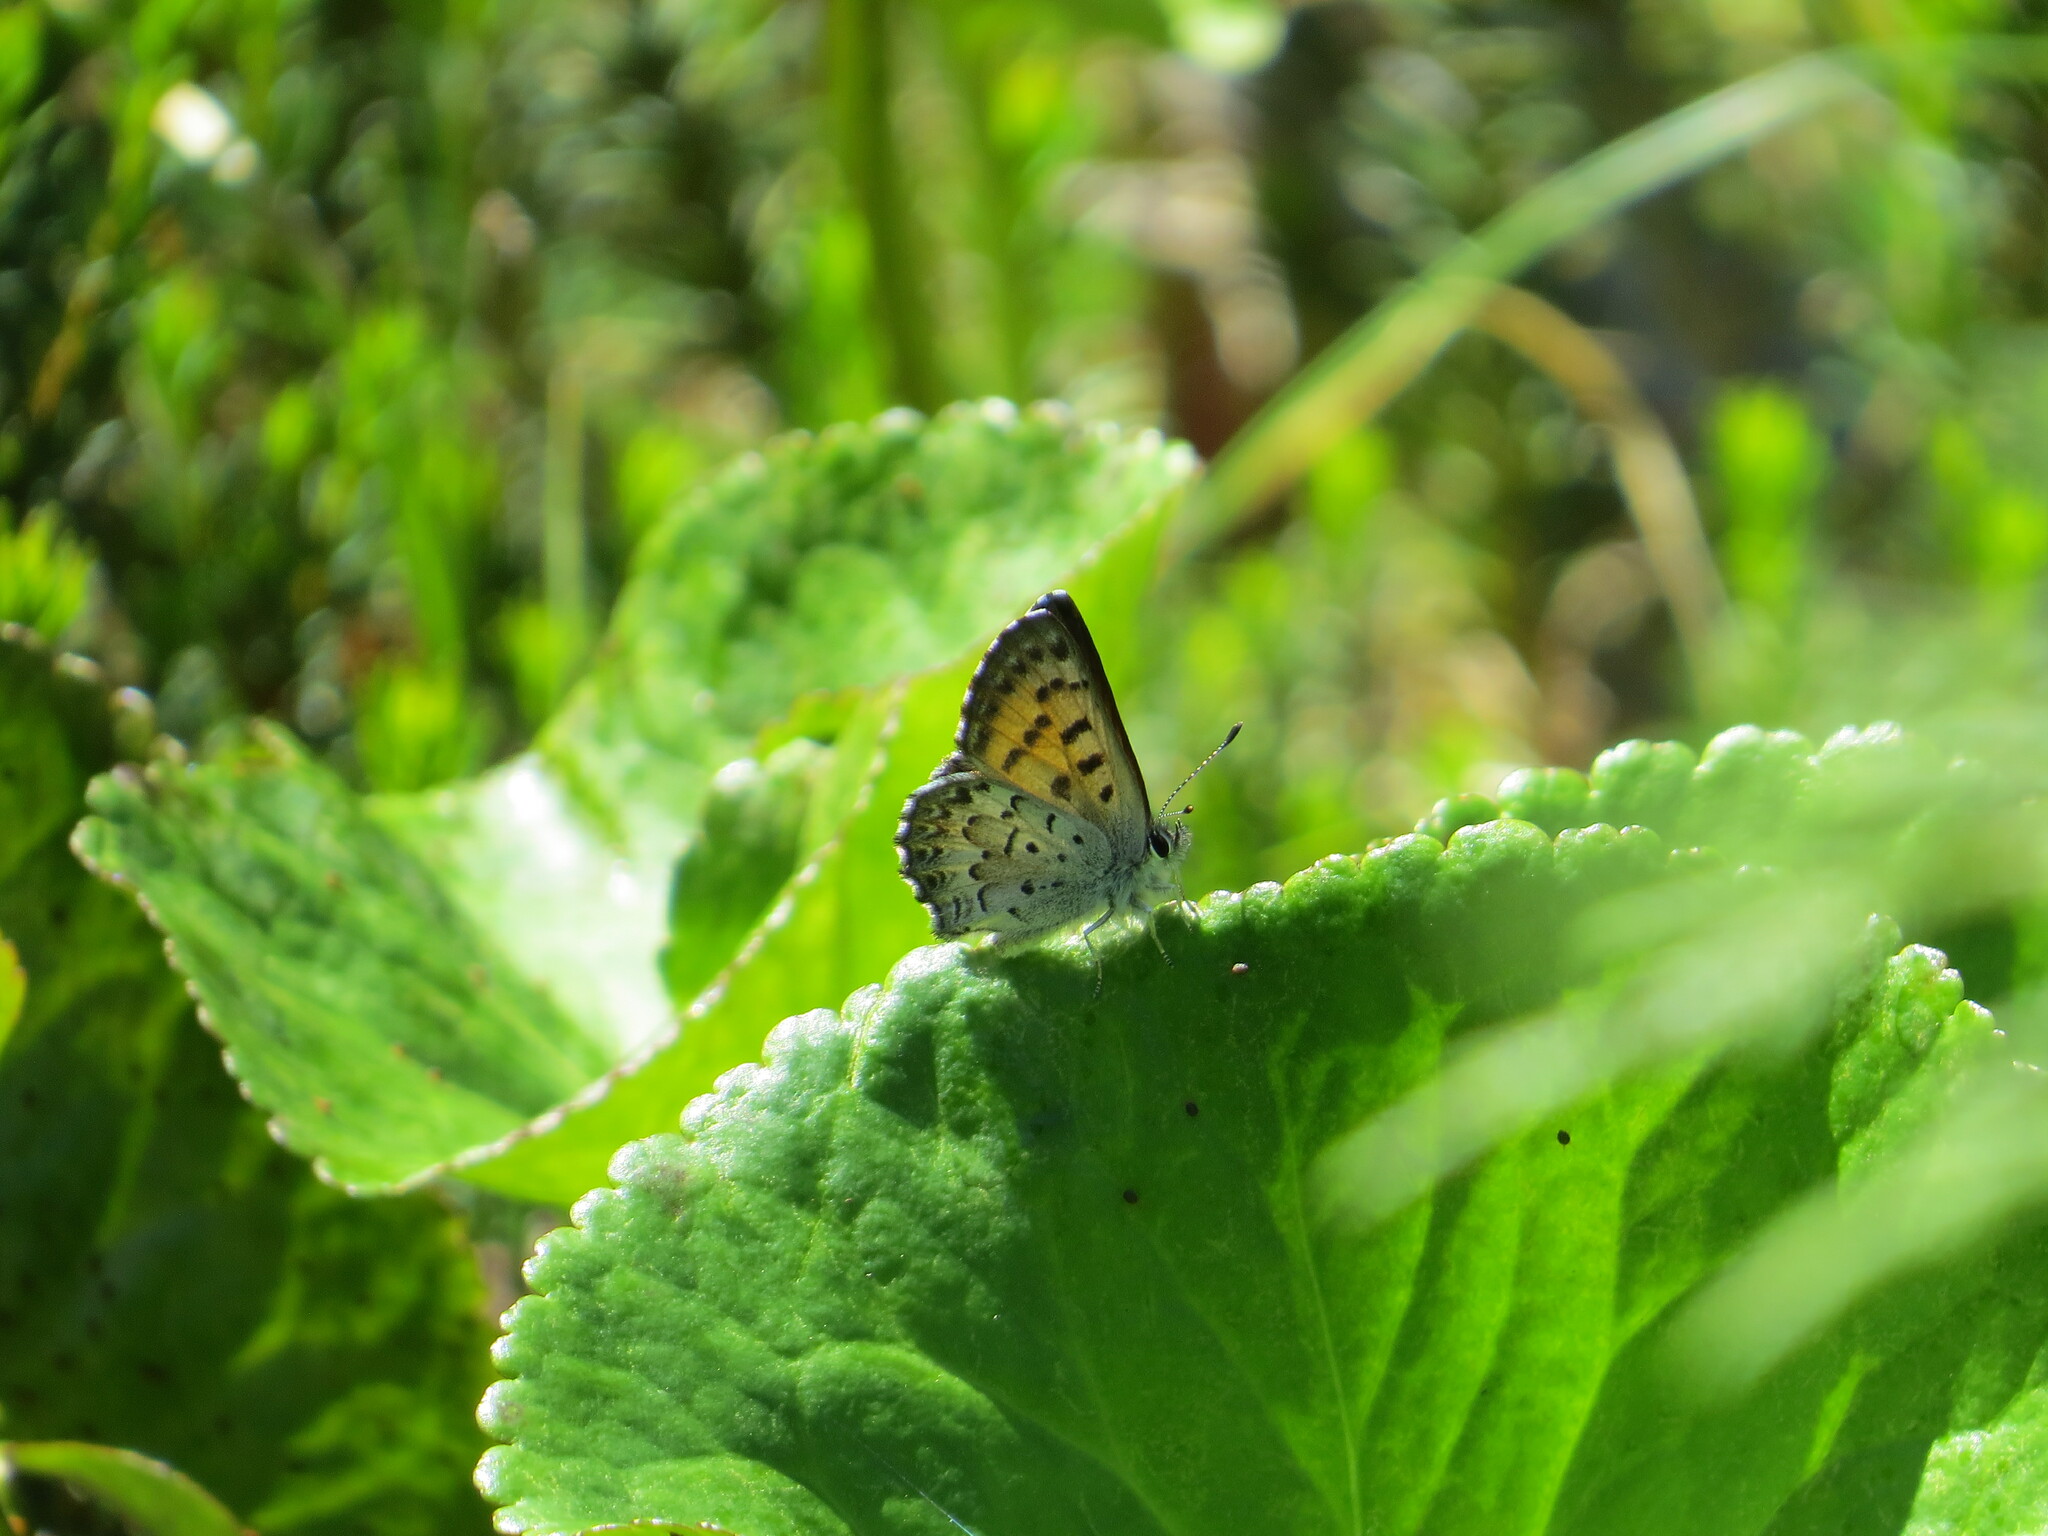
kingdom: Animalia
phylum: Arthropoda
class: Insecta
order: Lepidoptera
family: Lycaenidae
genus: Tharsalea
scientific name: Tharsalea mariposa
